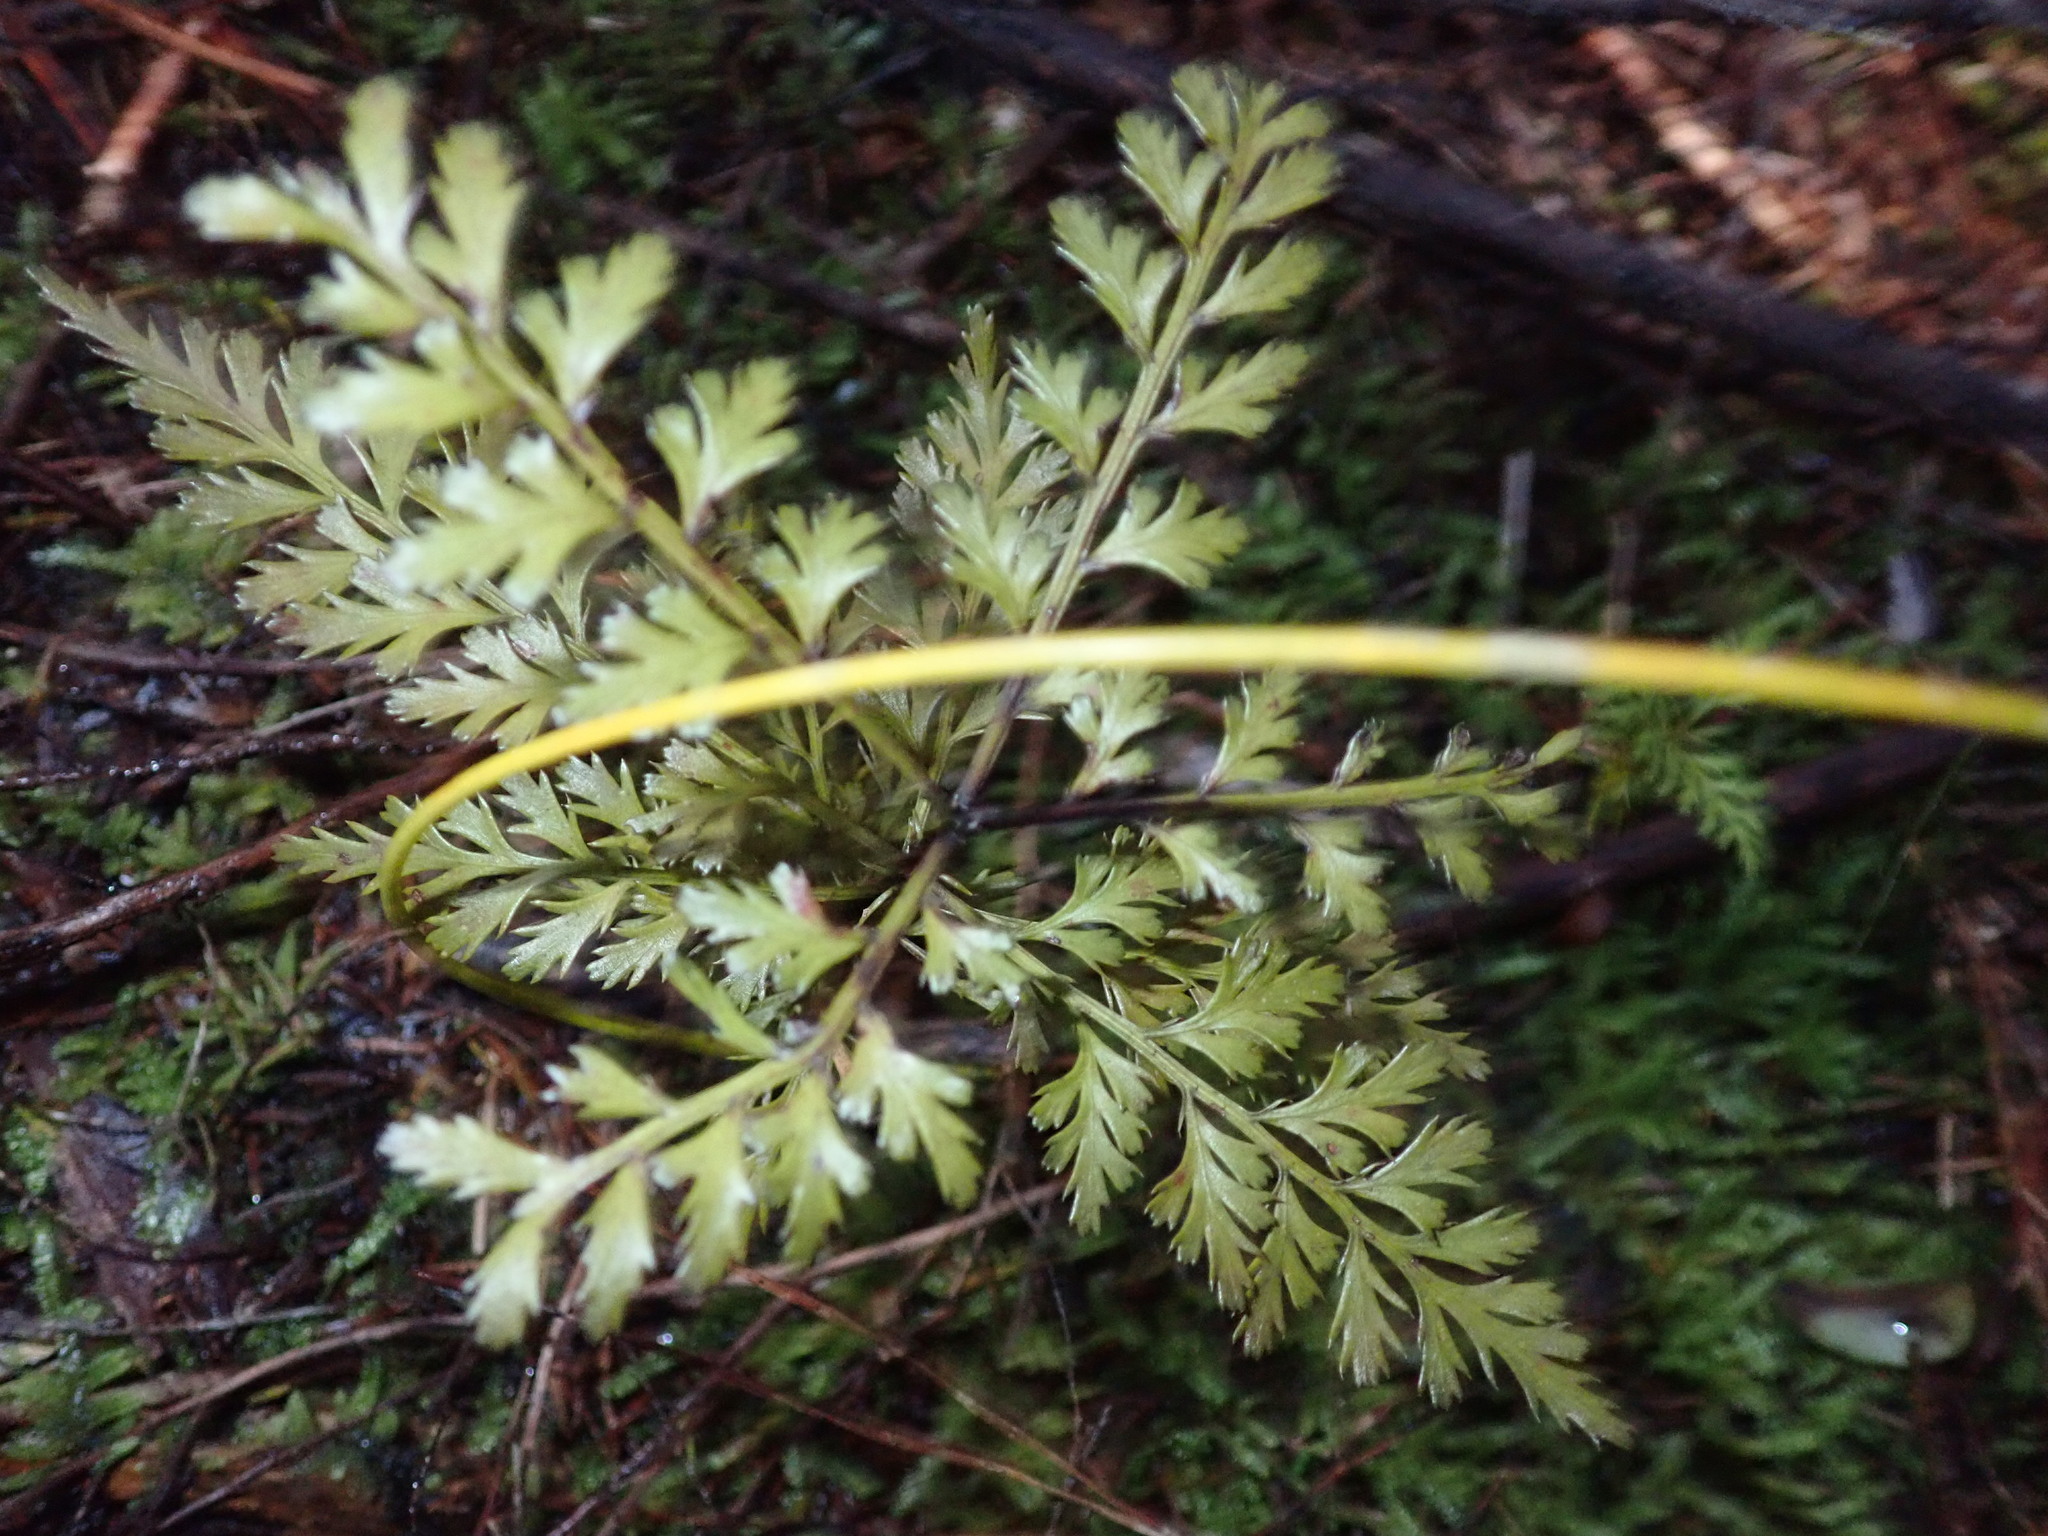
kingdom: Plantae
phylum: Tracheophyta
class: Pinopsida
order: Pinales
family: Phyllocladaceae
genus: Phyllocladus
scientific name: Phyllocladus trichomanoides
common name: Celery pine
